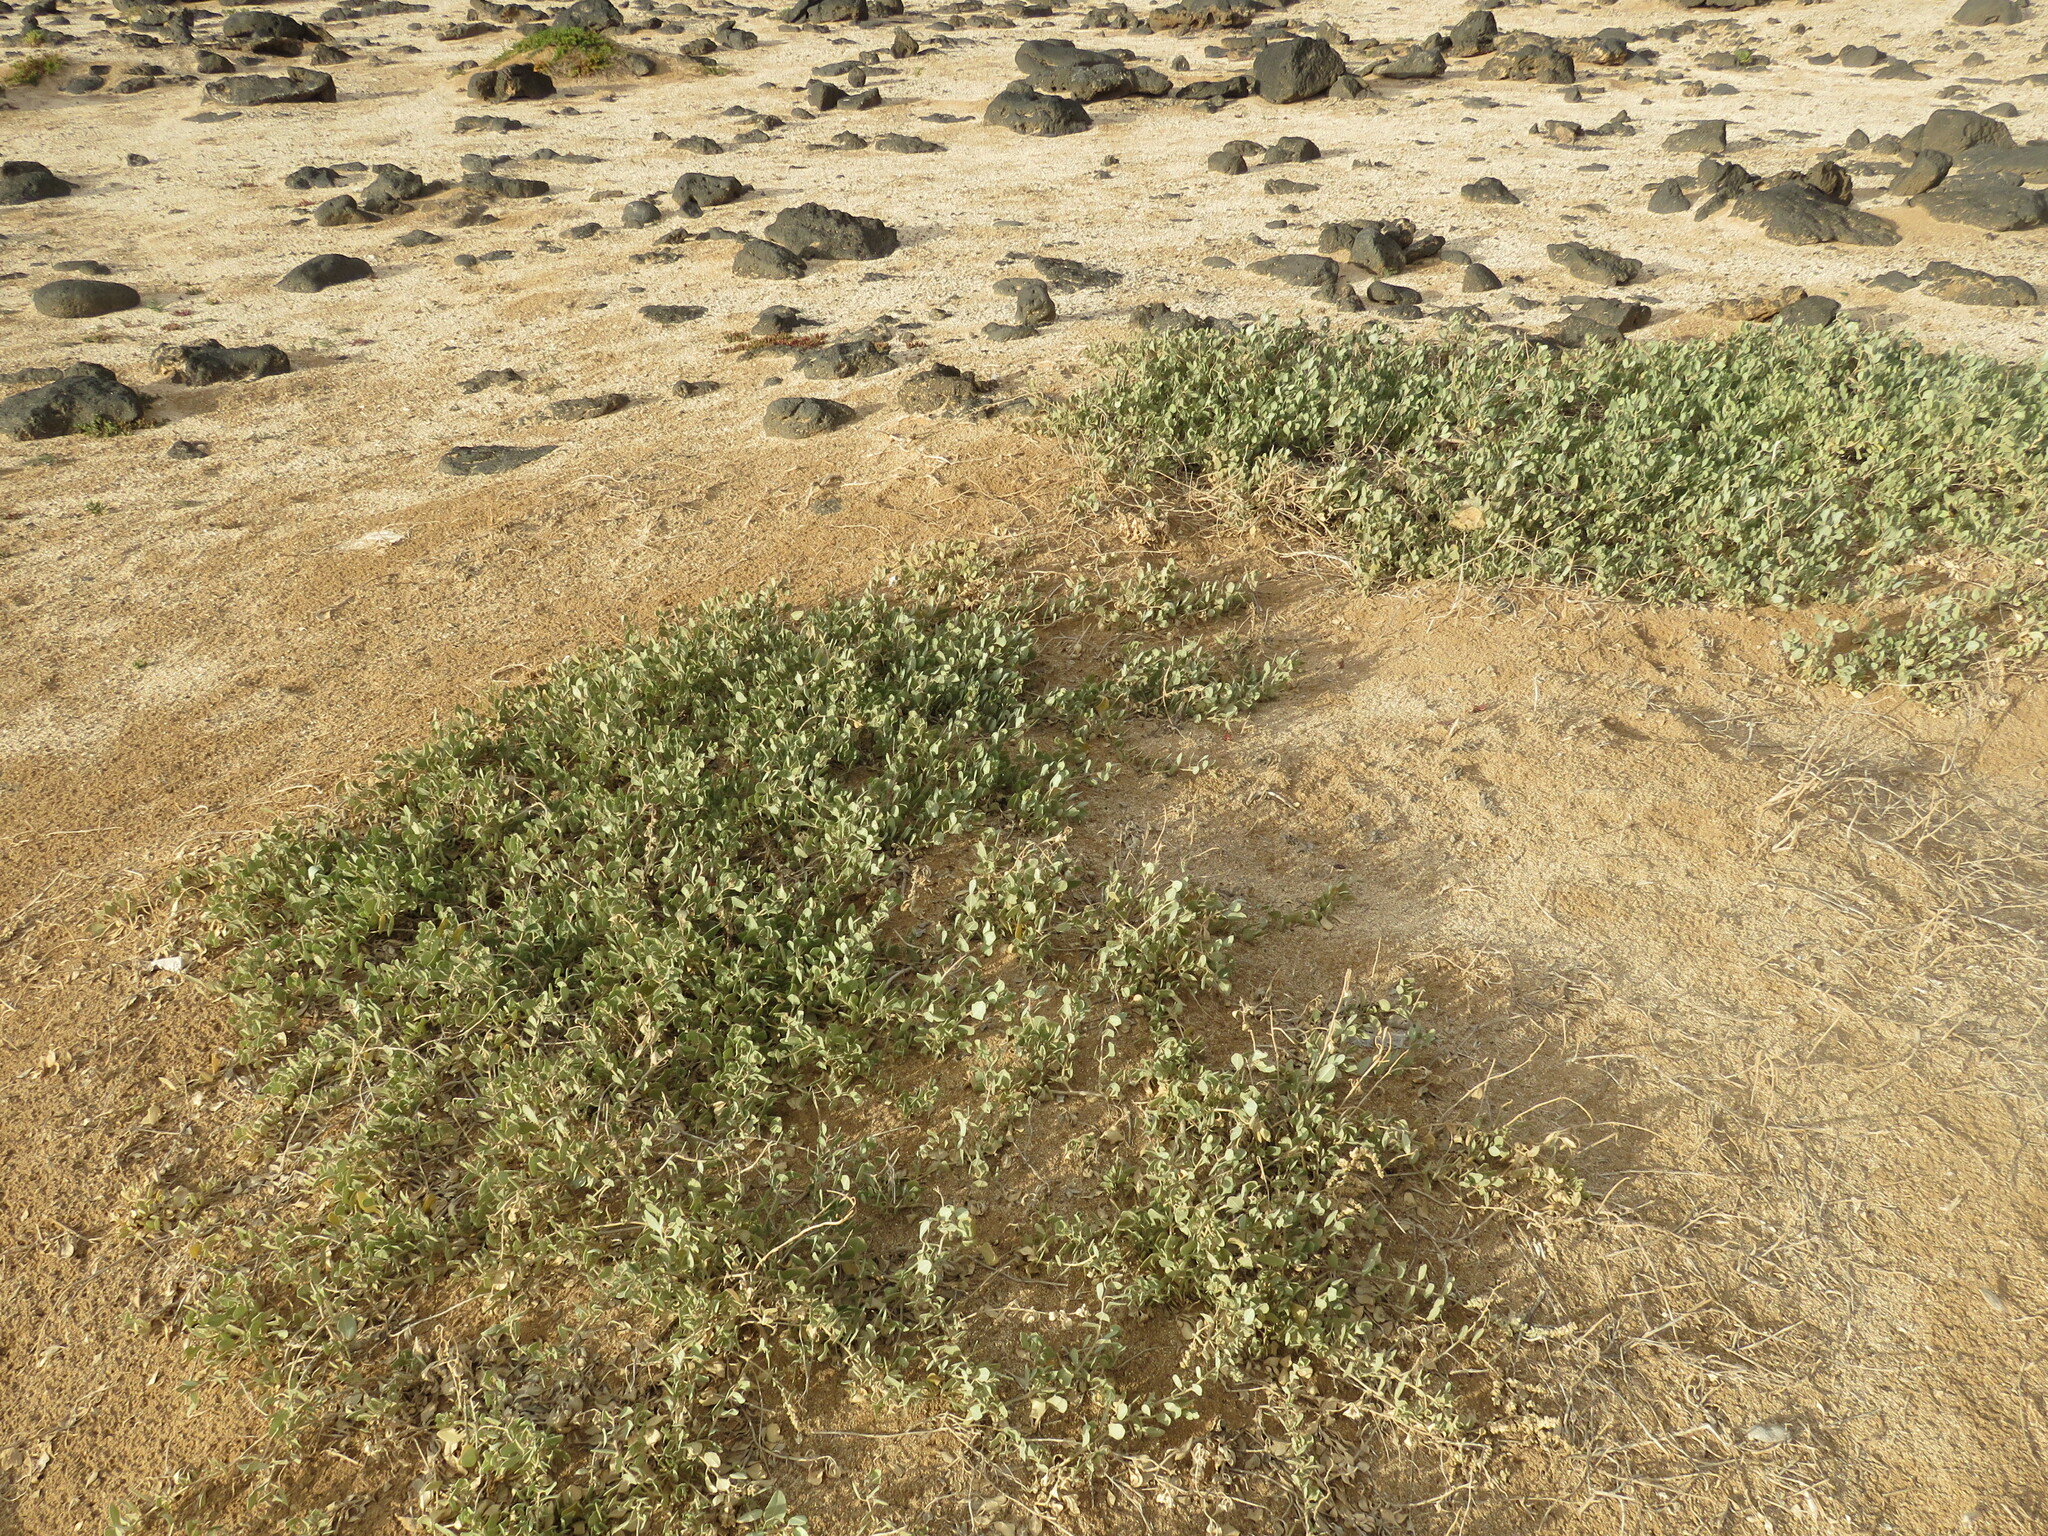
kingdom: Plantae
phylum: Tracheophyta
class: Magnoliopsida
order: Caryophyllales
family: Amaranthaceae
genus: Atriplex
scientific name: Atriplex halimus
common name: Shrubby orache
